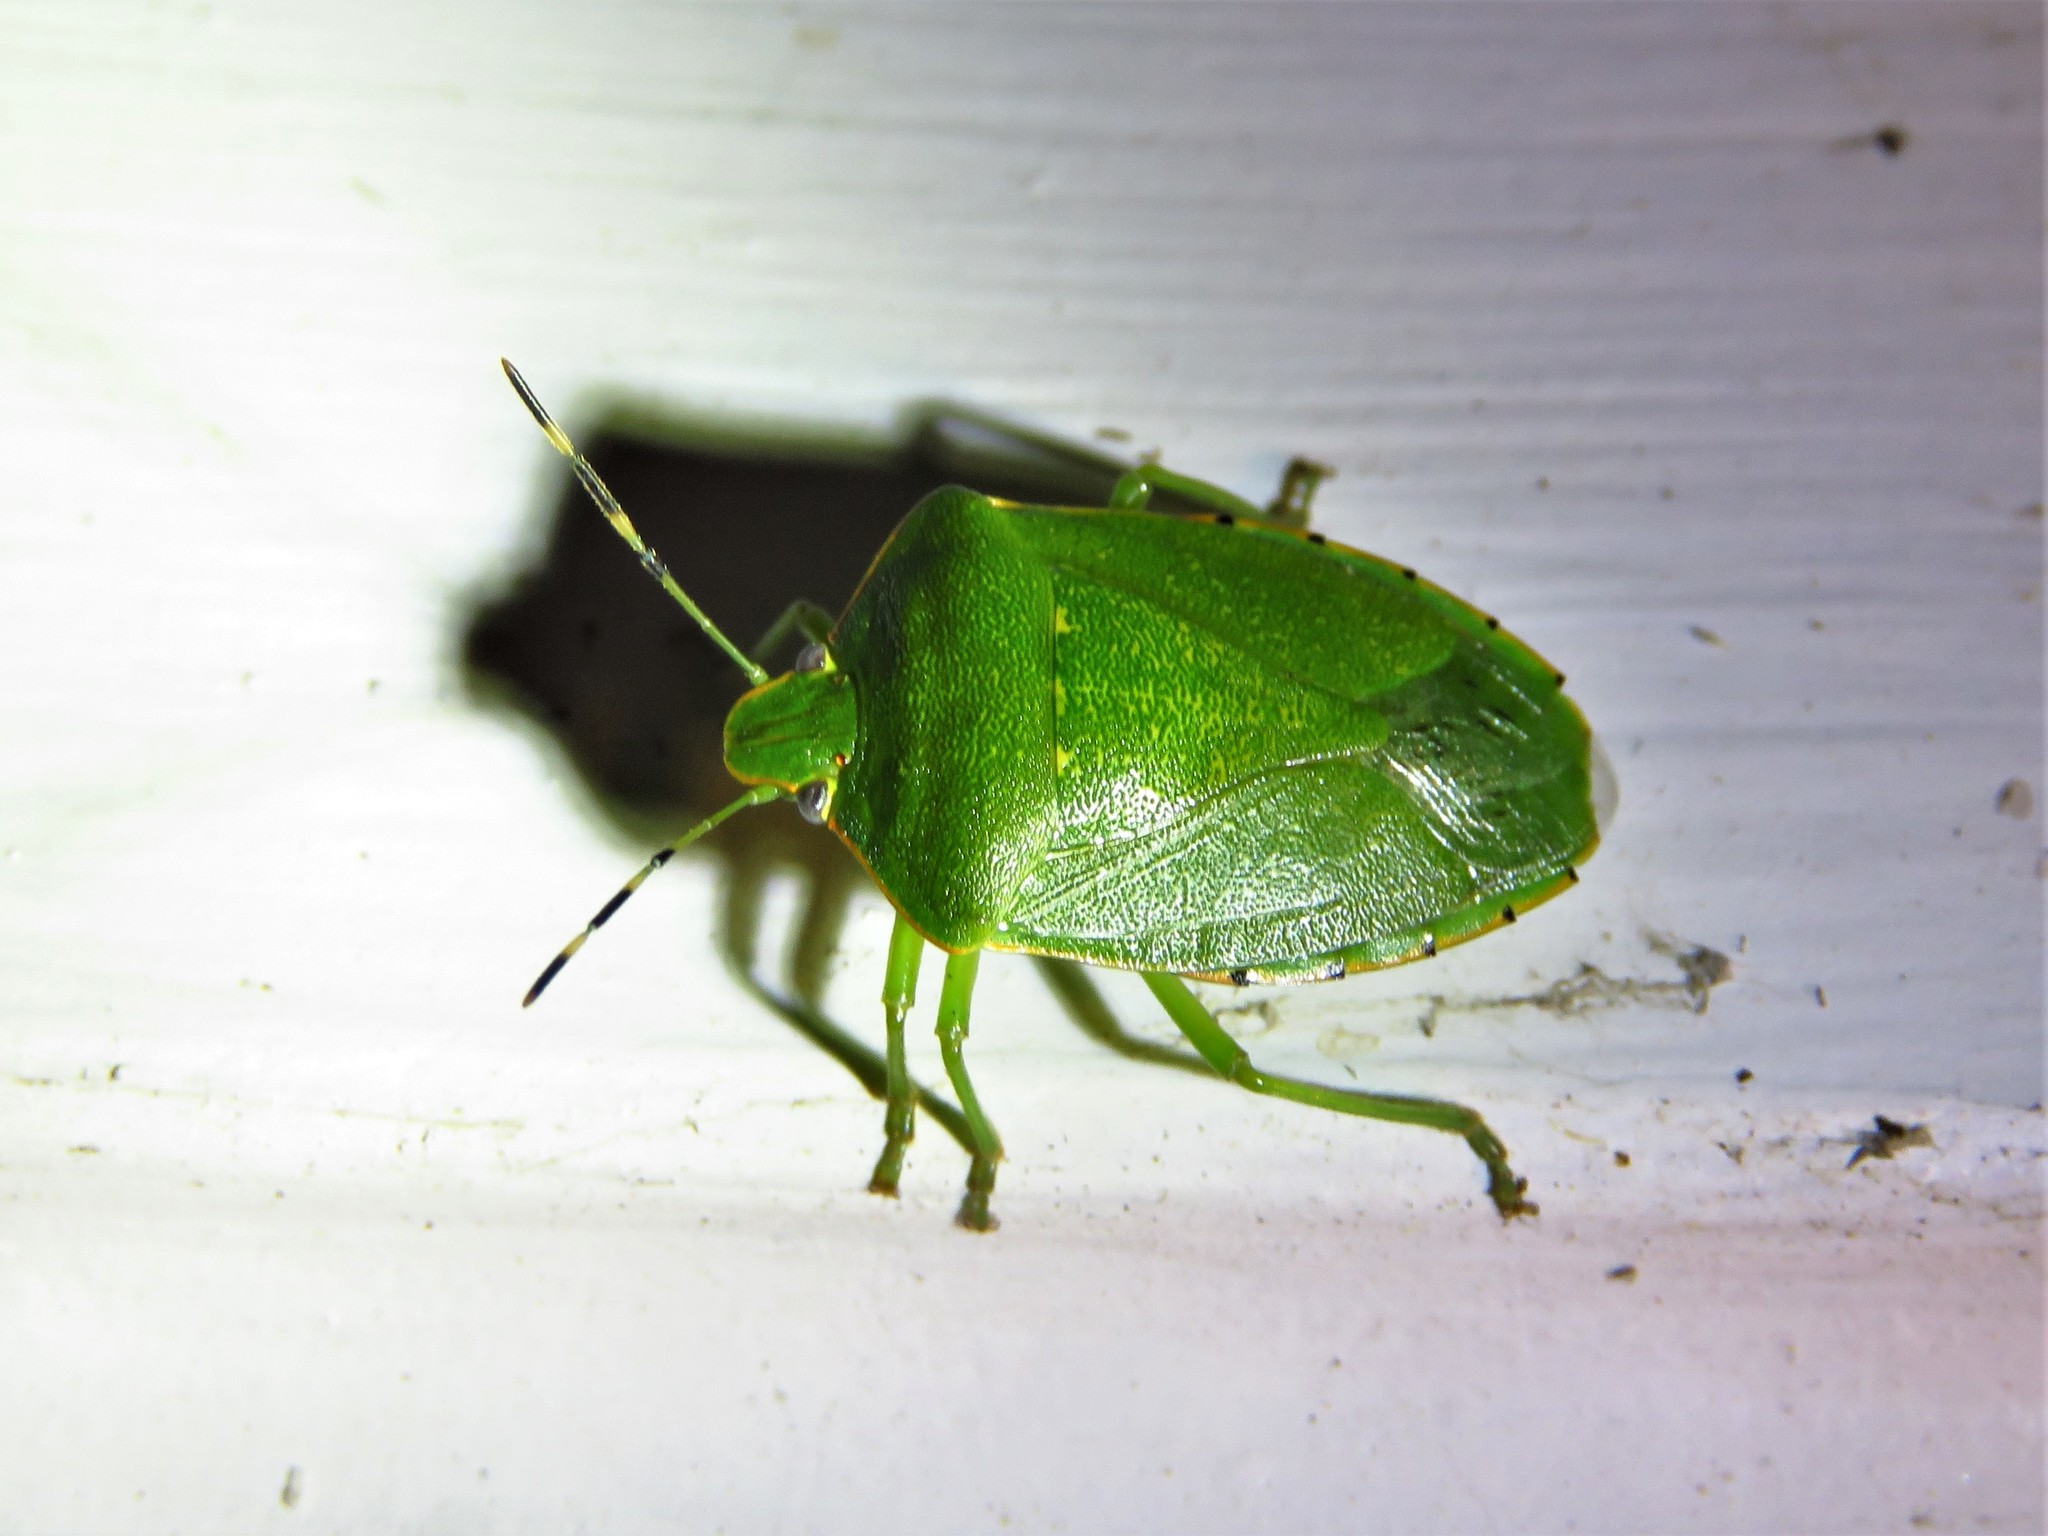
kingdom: Animalia
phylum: Arthropoda
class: Insecta
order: Hemiptera
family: Pentatomidae
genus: Chinavia
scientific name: Chinavia hilaris
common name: Green stink bug
